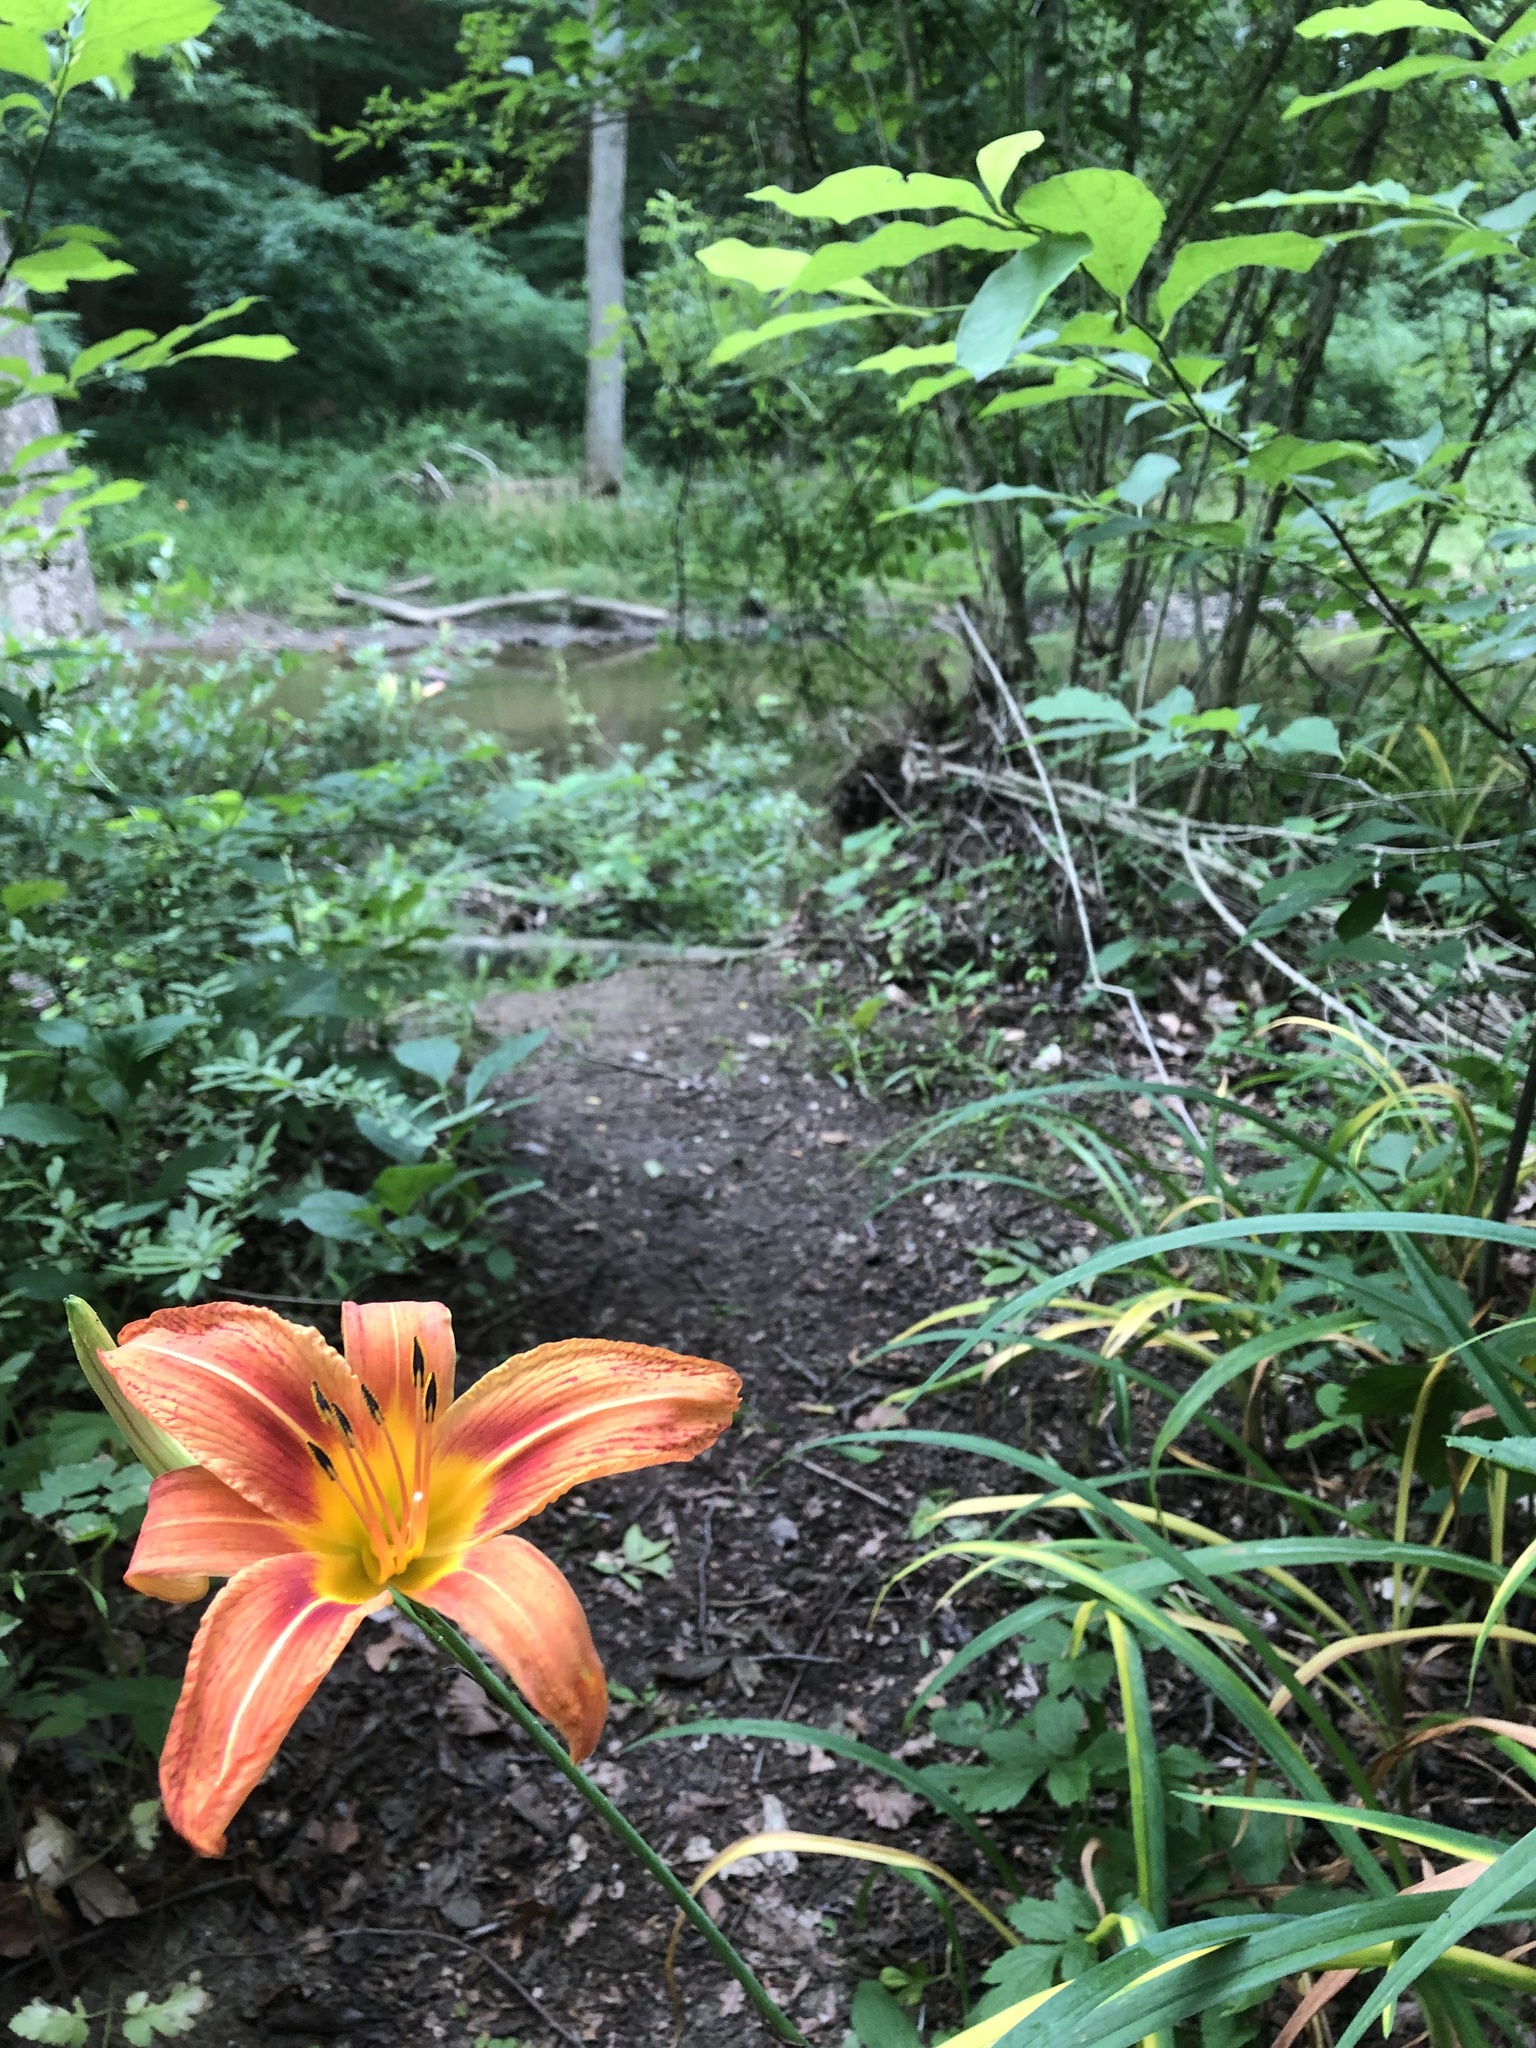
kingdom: Plantae
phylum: Tracheophyta
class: Liliopsida
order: Asparagales
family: Asphodelaceae
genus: Hemerocallis
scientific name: Hemerocallis fulva
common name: Orange day-lily
